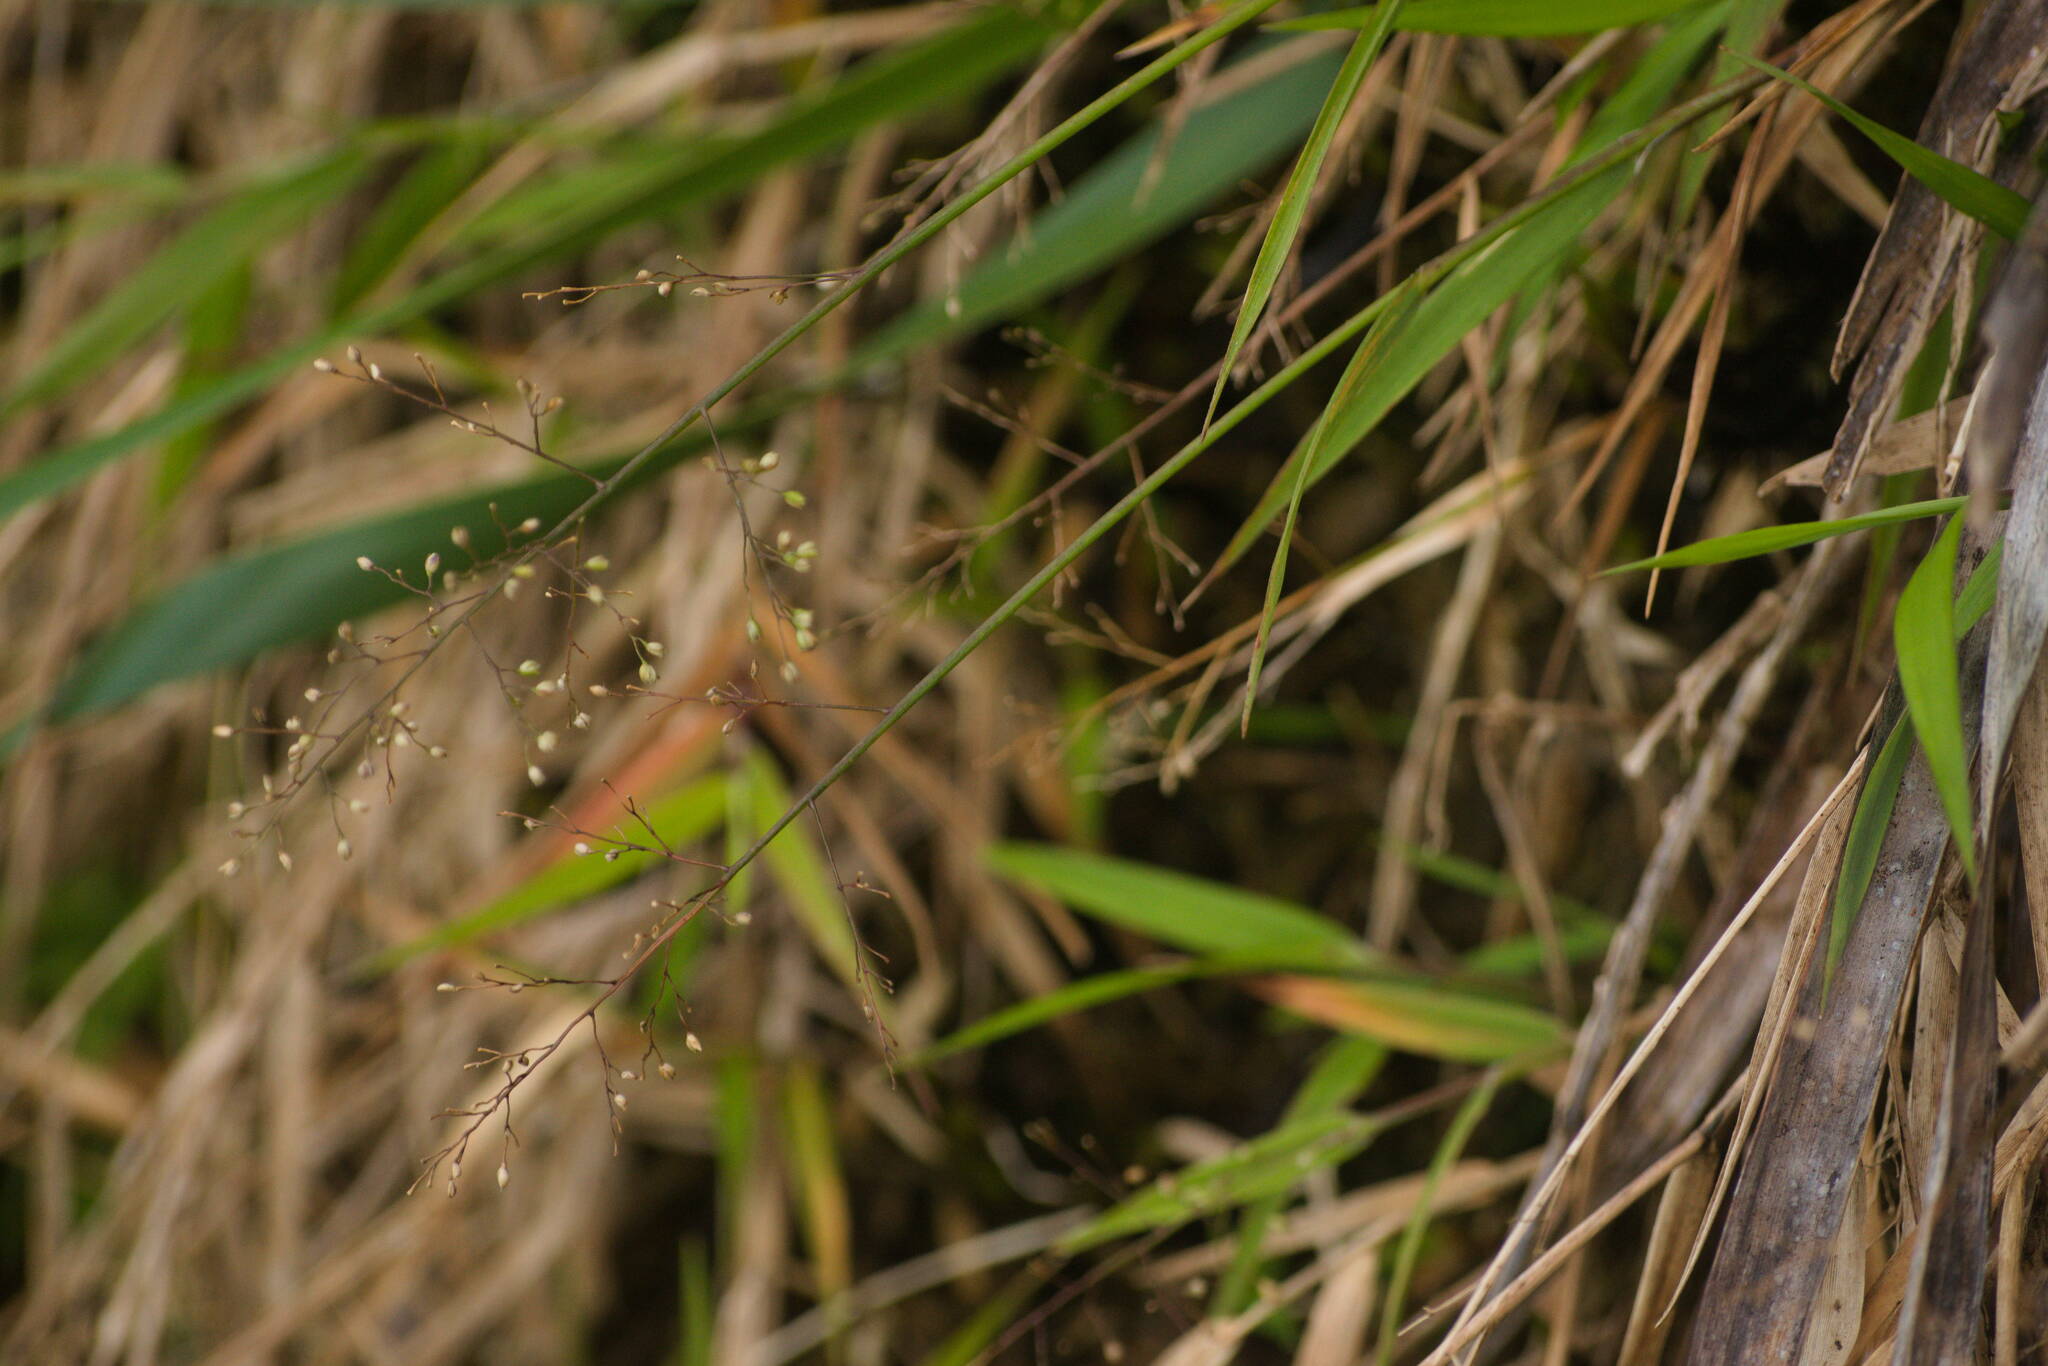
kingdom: Plantae
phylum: Tracheophyta
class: Liliopsida
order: Poales
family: Poaceae
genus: Isachne
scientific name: Isachne pallens
